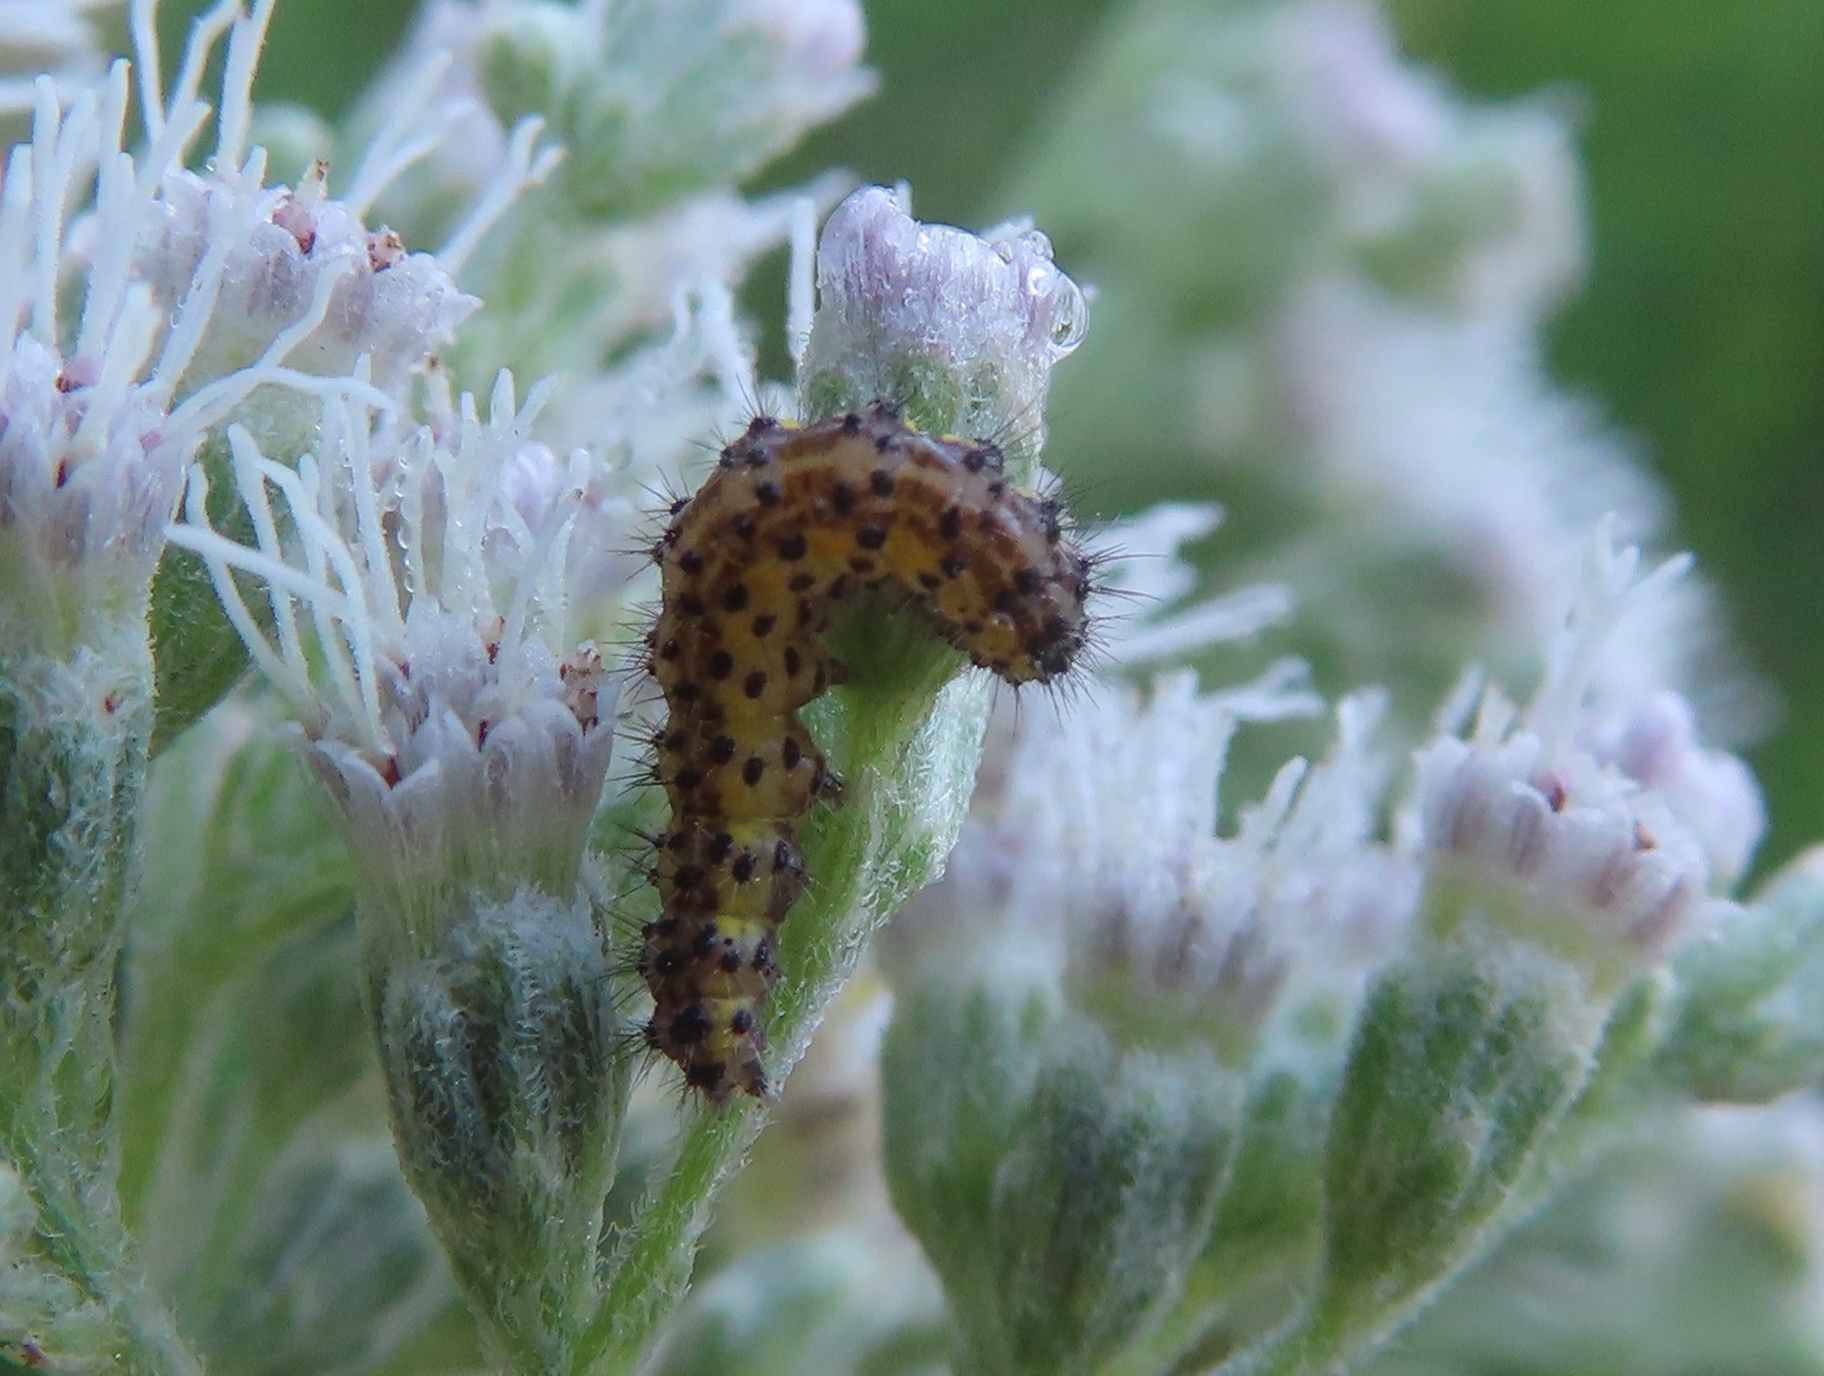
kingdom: Animalia
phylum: Arthropoda
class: Insecta
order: Lepidoptera
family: Crambidae
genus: Sitochroa
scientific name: Sitochroa palealis
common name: Greenish-yellow sitochroa moth
